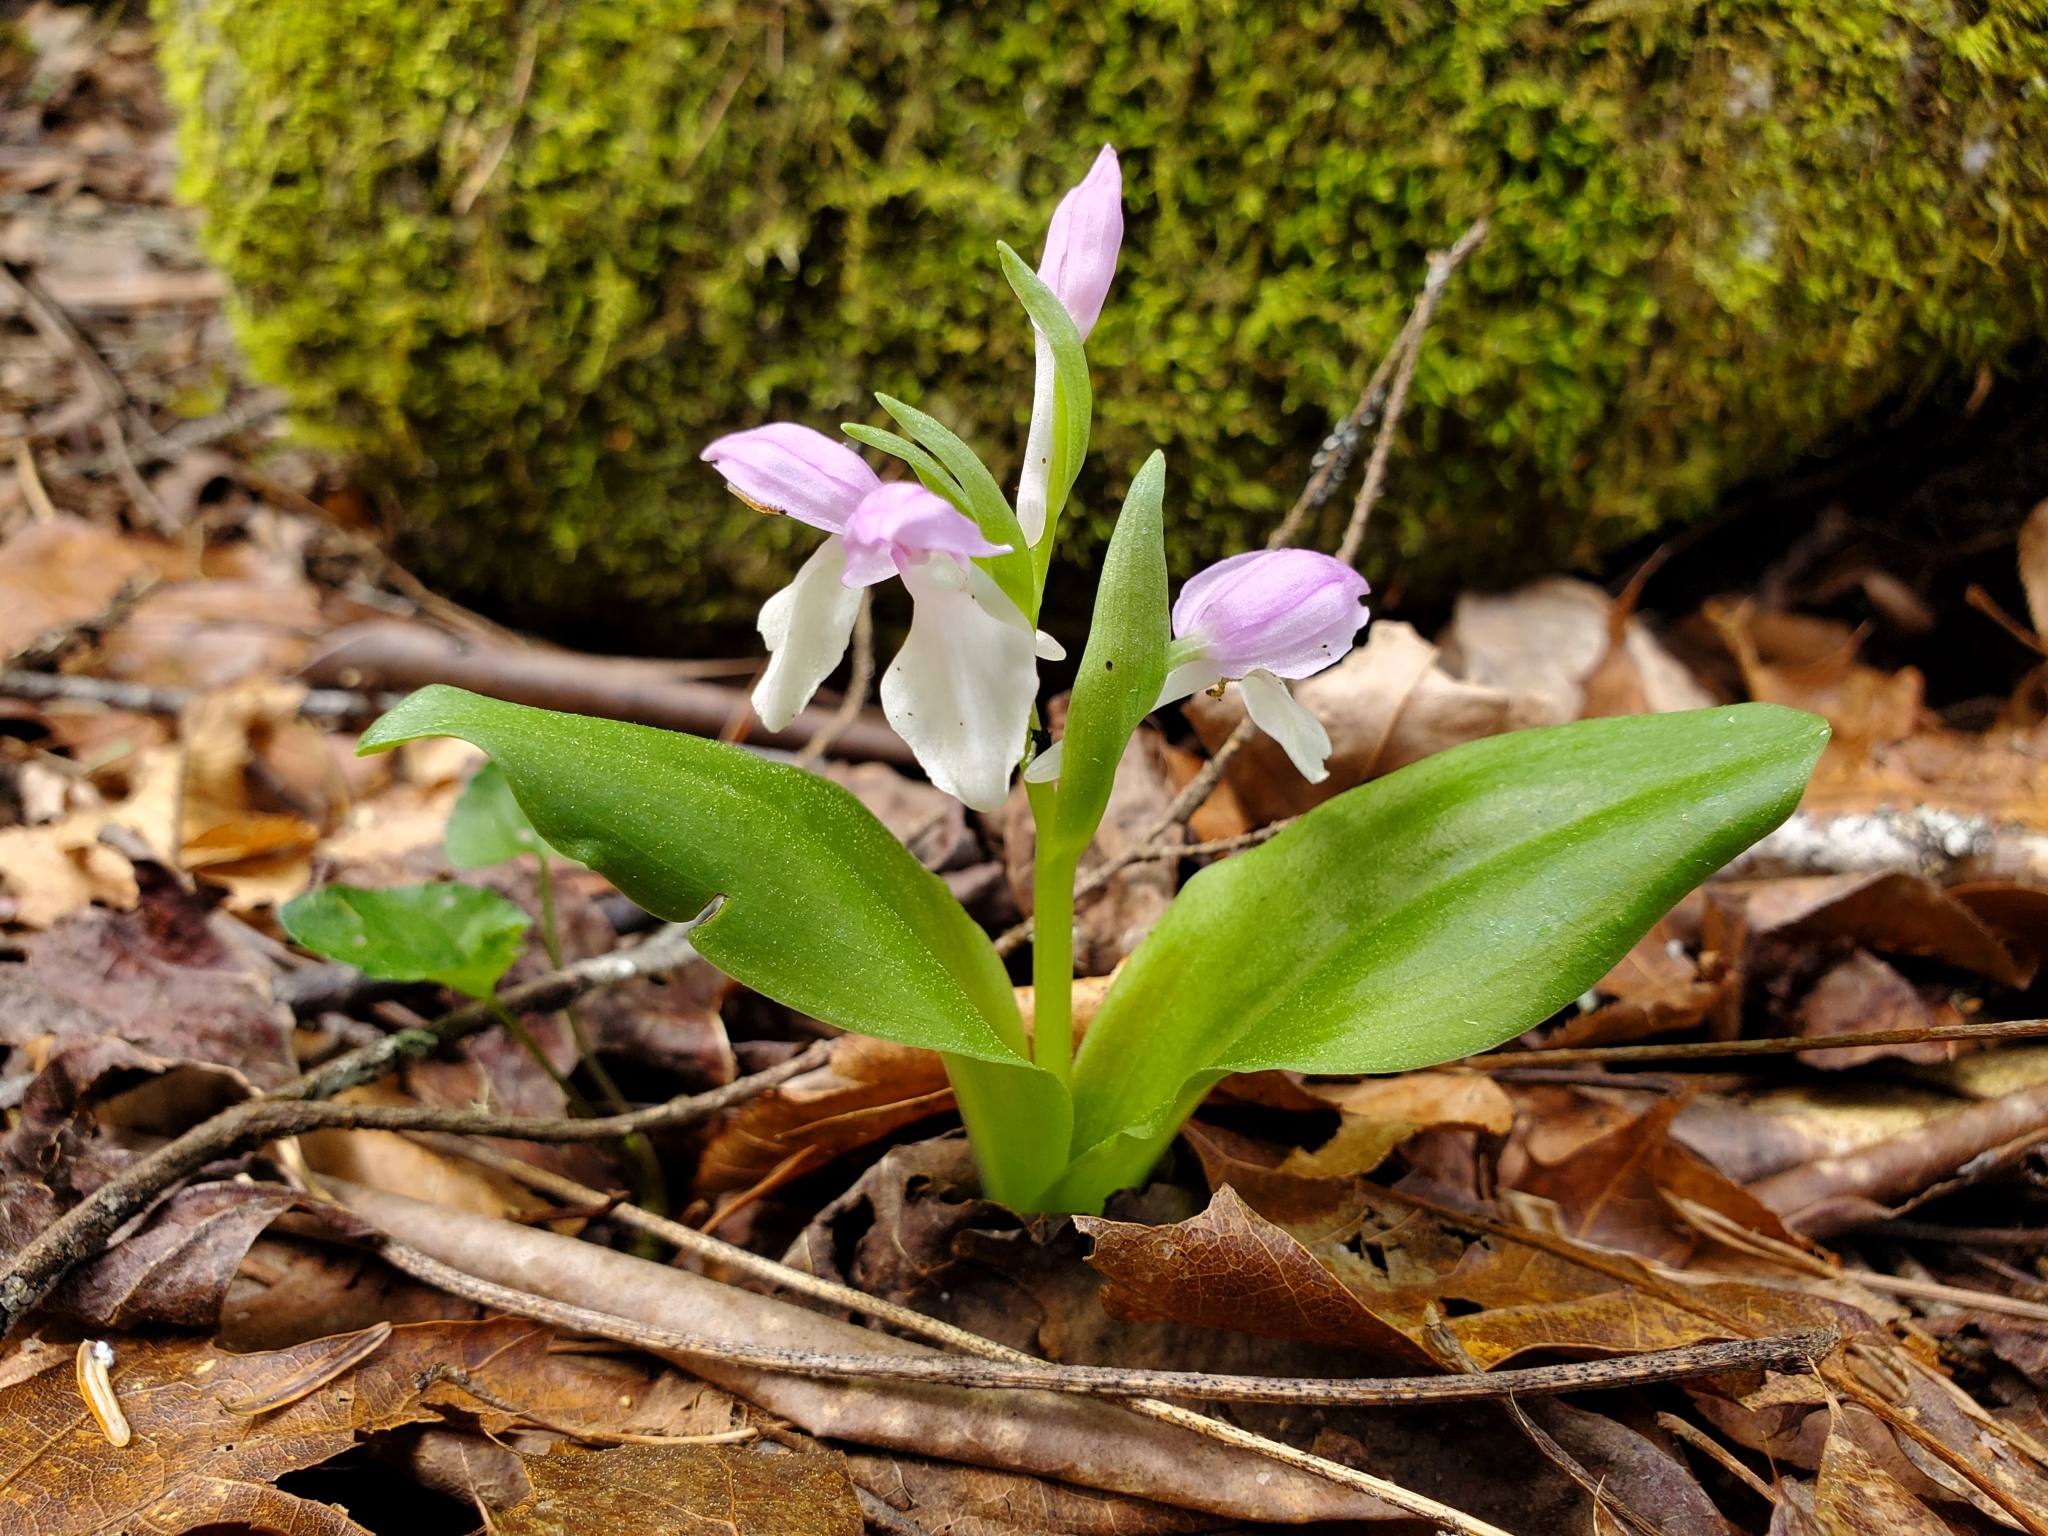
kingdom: Plantae
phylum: Tracheophyta
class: Liliopsida
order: Asparagales
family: Orchidaceae
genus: Galearis
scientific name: Galearis spectabilis
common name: Purple-hooded orchis
